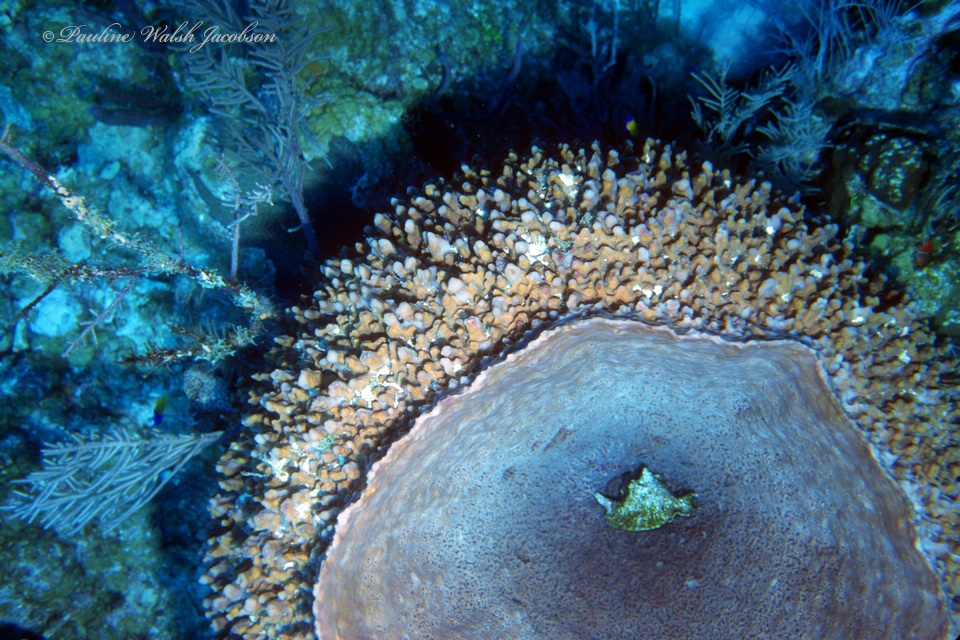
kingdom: Animalia
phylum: Porifera
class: Demospongiae
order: Haplosclerida
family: Petrosiidae
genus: Xestospongia
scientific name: Xestospongia muta
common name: Giant barrel sponge
